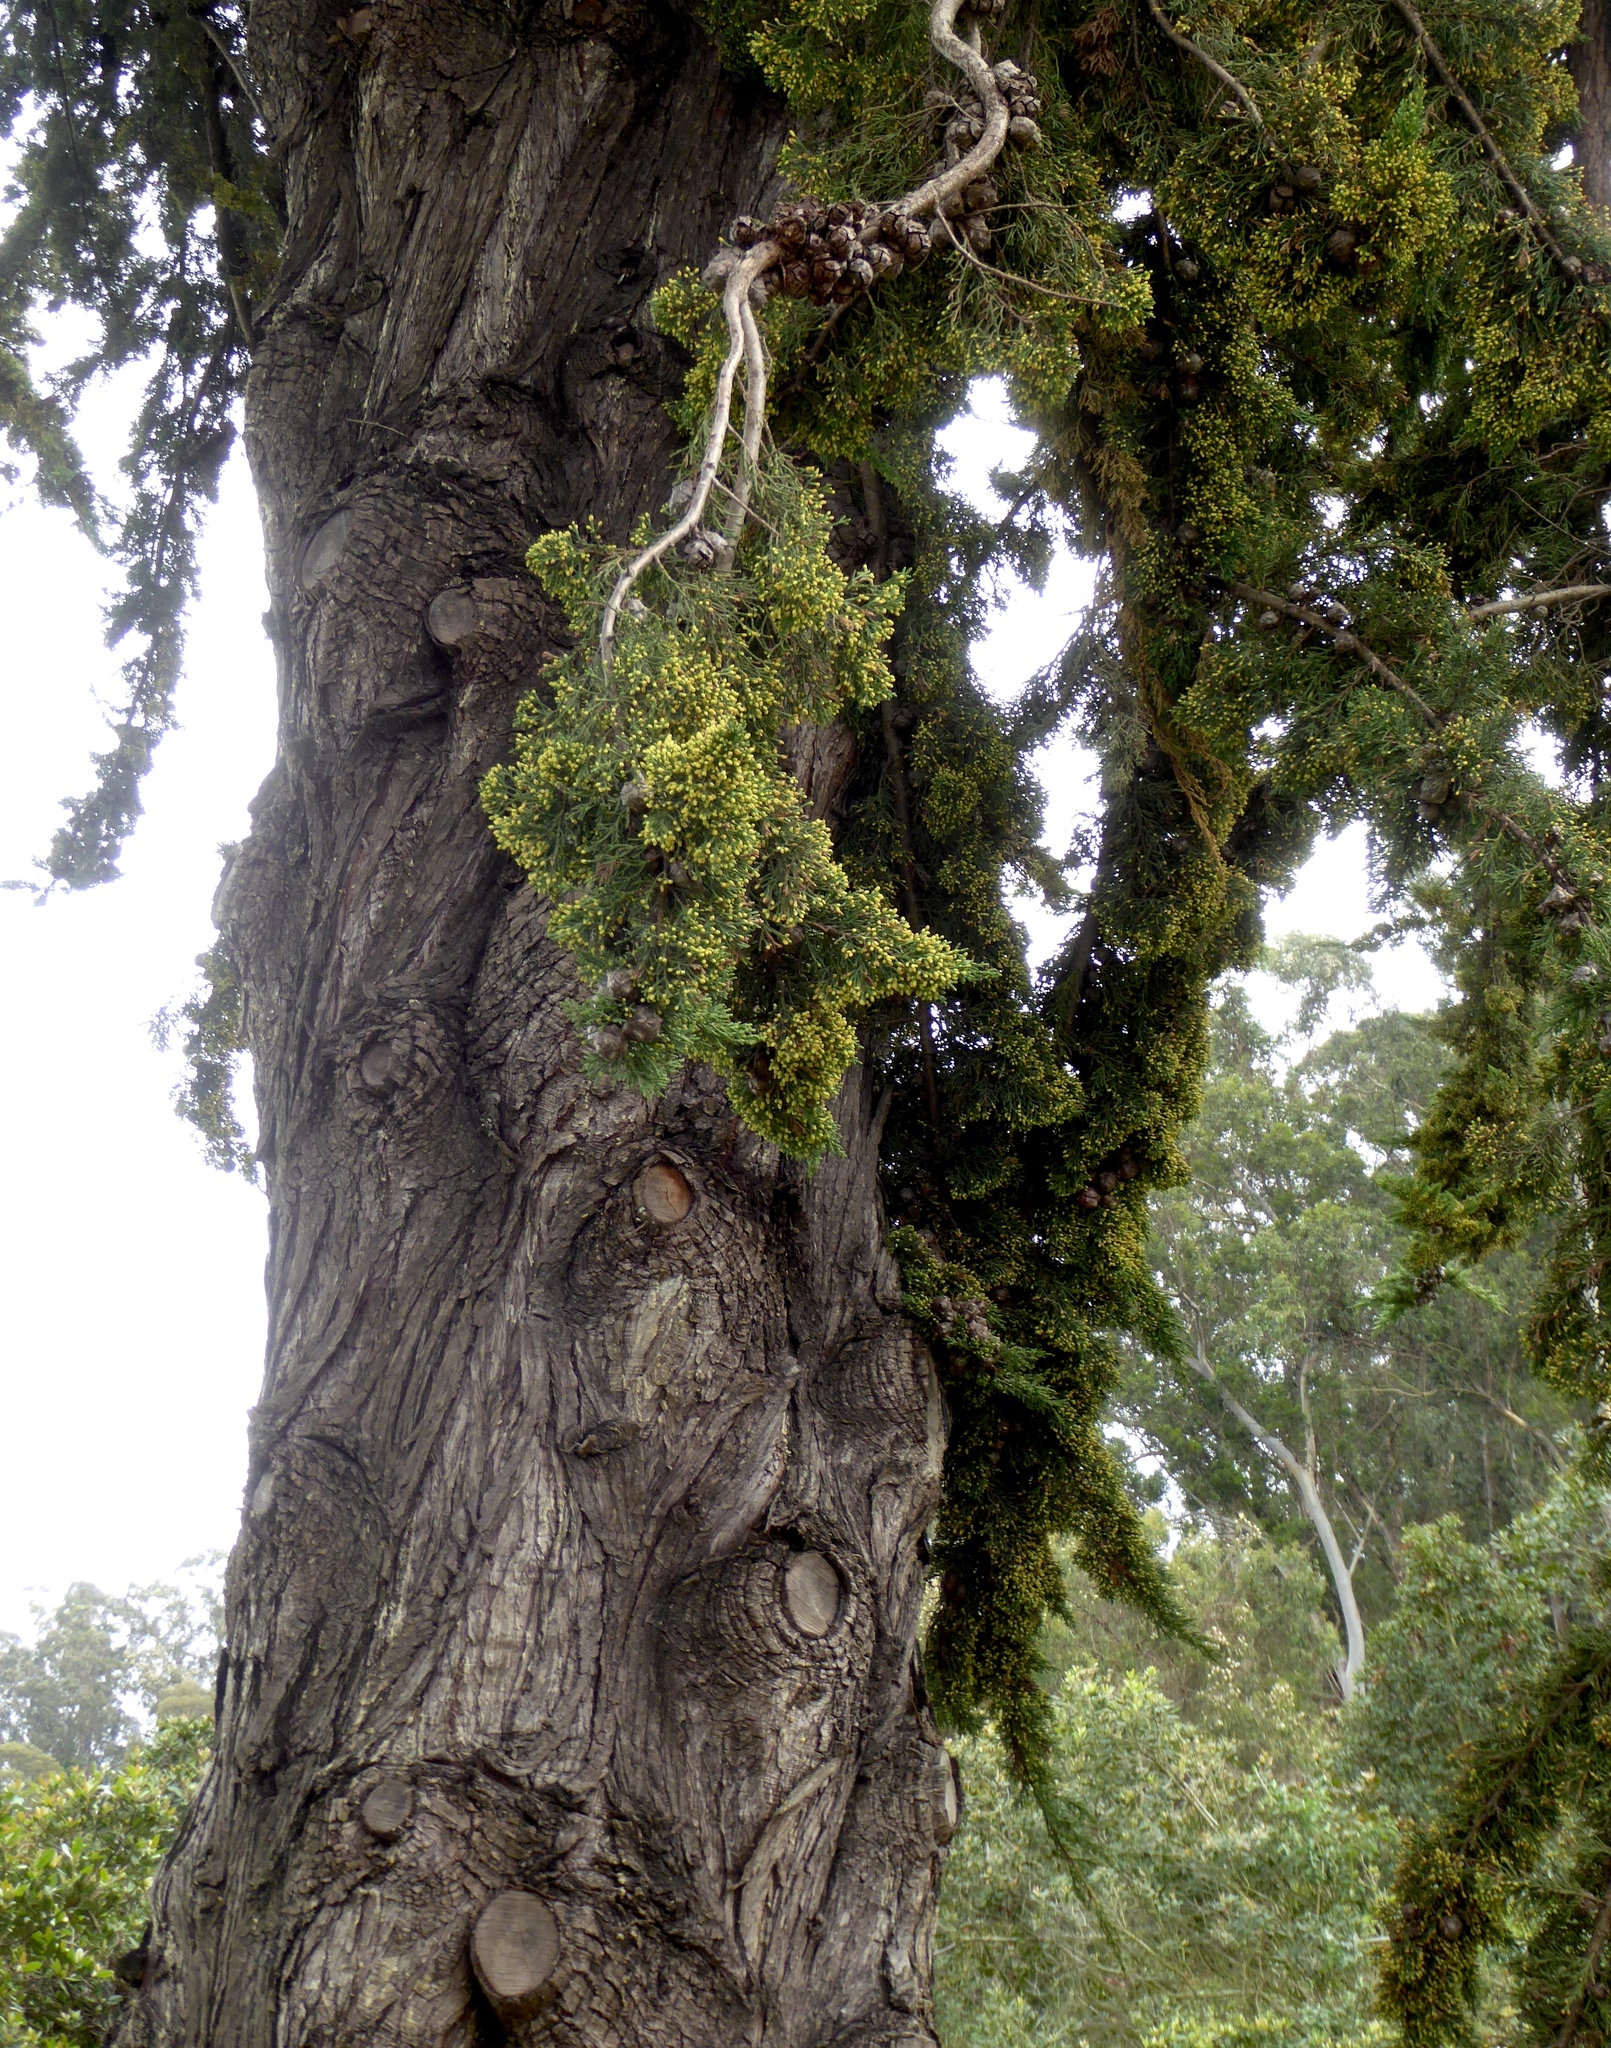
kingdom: Plantae
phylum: Tracheophyta
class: Pinopsida
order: Pinales
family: Cupressaceae
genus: Cupressus
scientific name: Cupressus macrocarpa
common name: Monterey cypress
